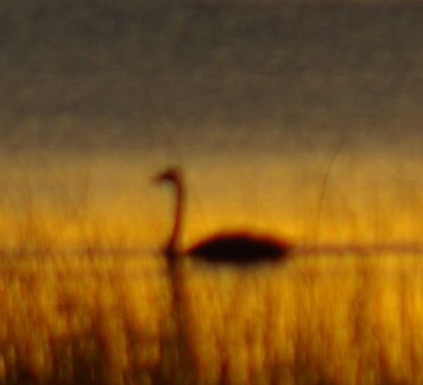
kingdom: Animalia
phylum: Chordata
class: Aves
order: Anseriformes
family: Anatidae
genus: Cygnus
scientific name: Cygnus
